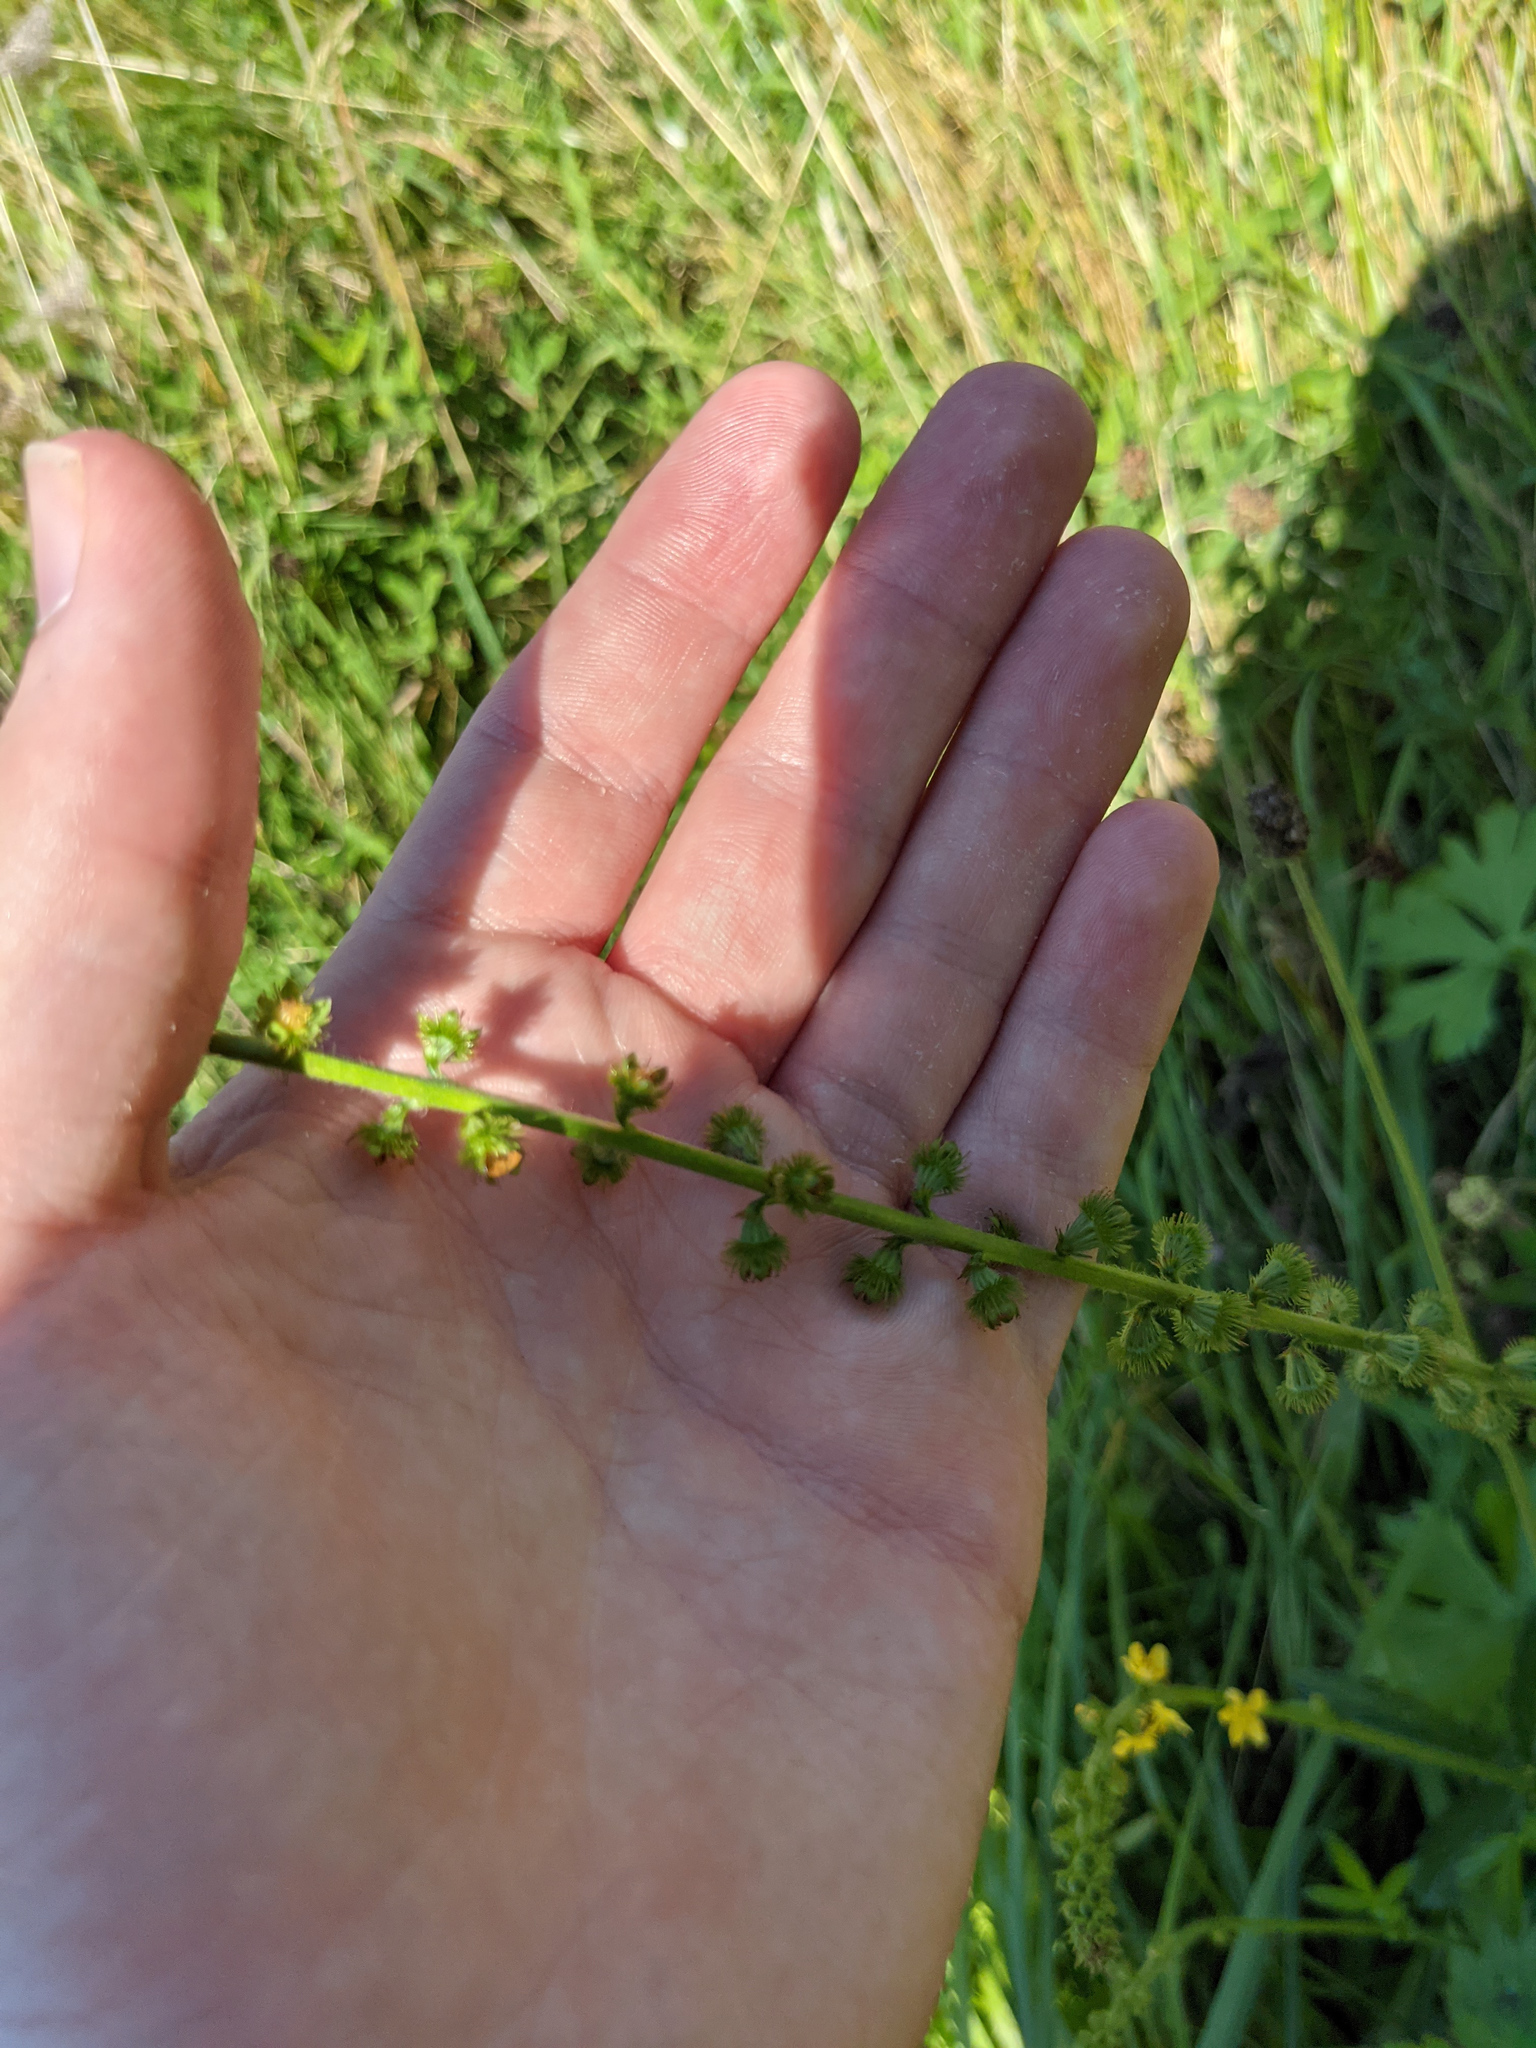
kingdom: Plantae
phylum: Tracheophyta
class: Magnoliopsida
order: Rosales
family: Rosaceae
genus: Agrimonia
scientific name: Agrimonia eupatoria
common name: Agrimony
